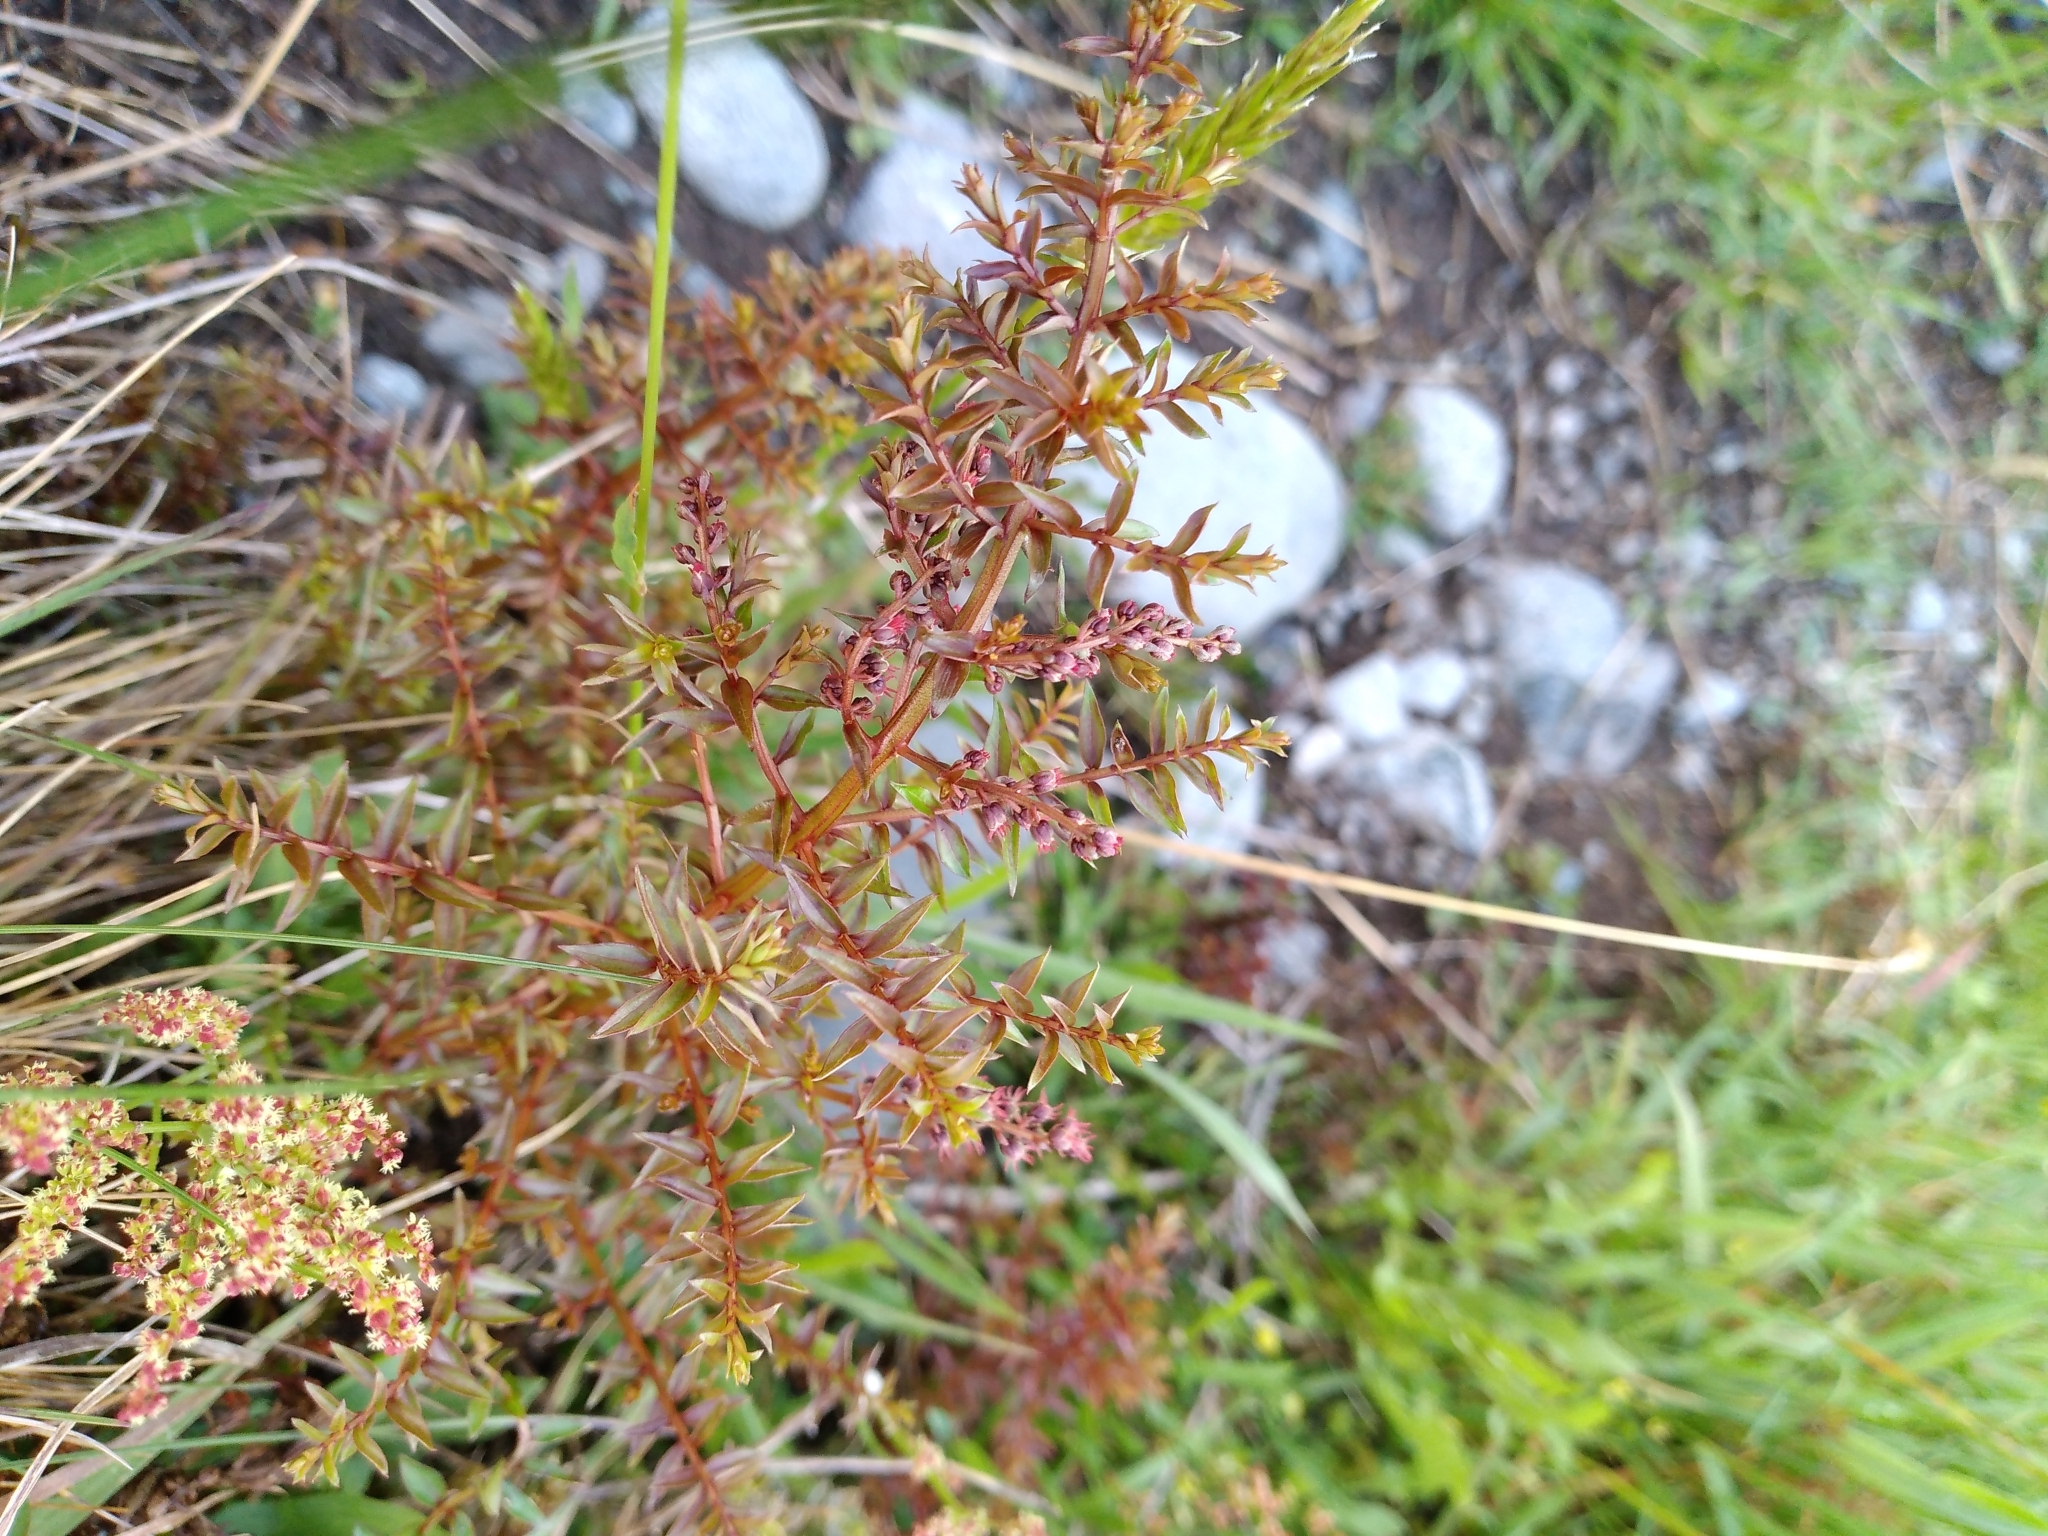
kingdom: Plantae
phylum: Tracheophyta
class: Magnoliopsida
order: Cucurbitales
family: Coriariaceae
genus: Coriaria
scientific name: Coriaria angustissima
